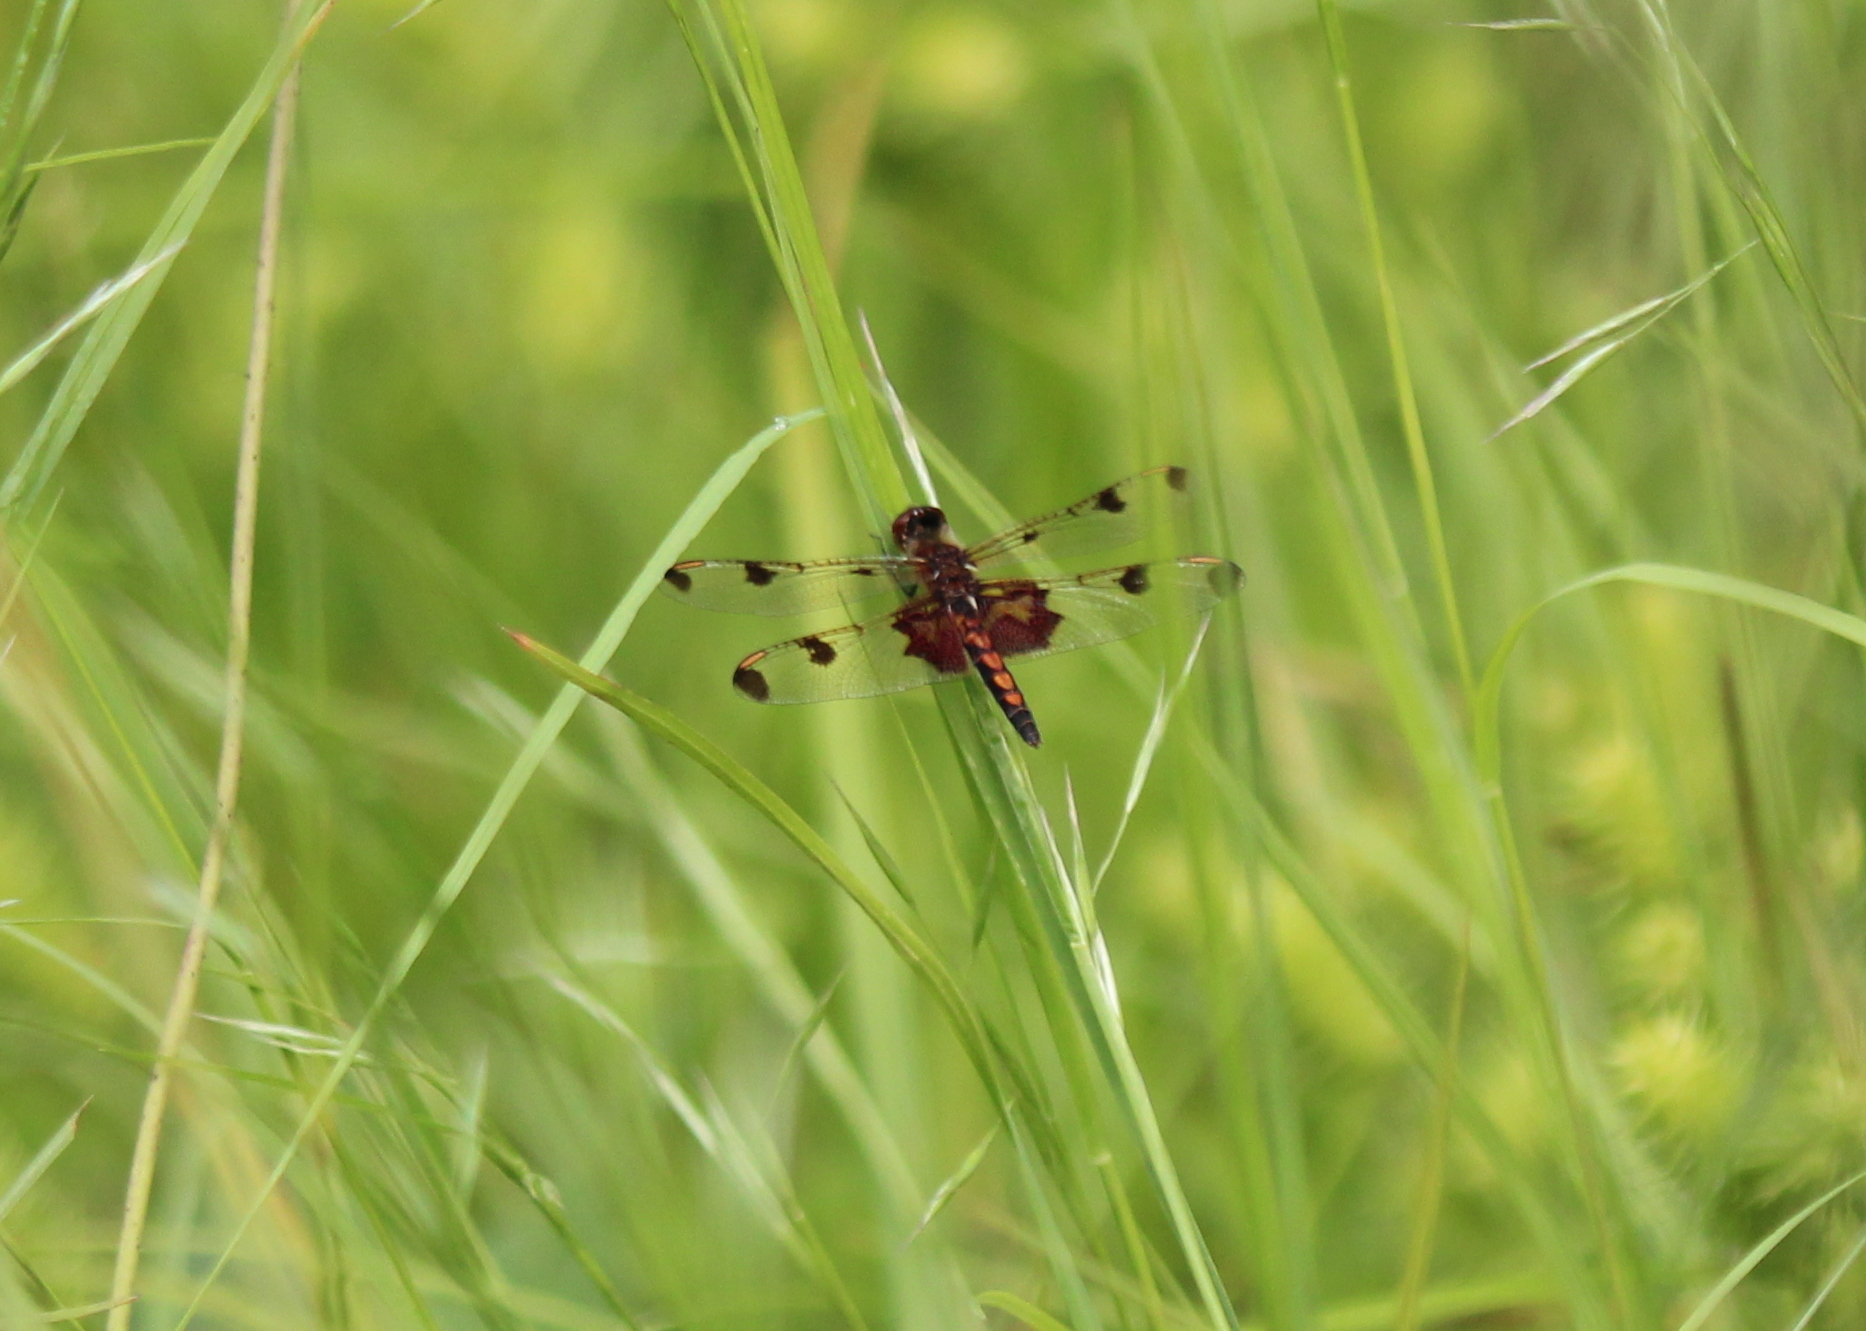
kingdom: Animalia
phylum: Arthropoda
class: Insecta
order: Odonata
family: Libellulidae
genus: Celithemis
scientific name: Celithemis elisa
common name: Calico pennant
